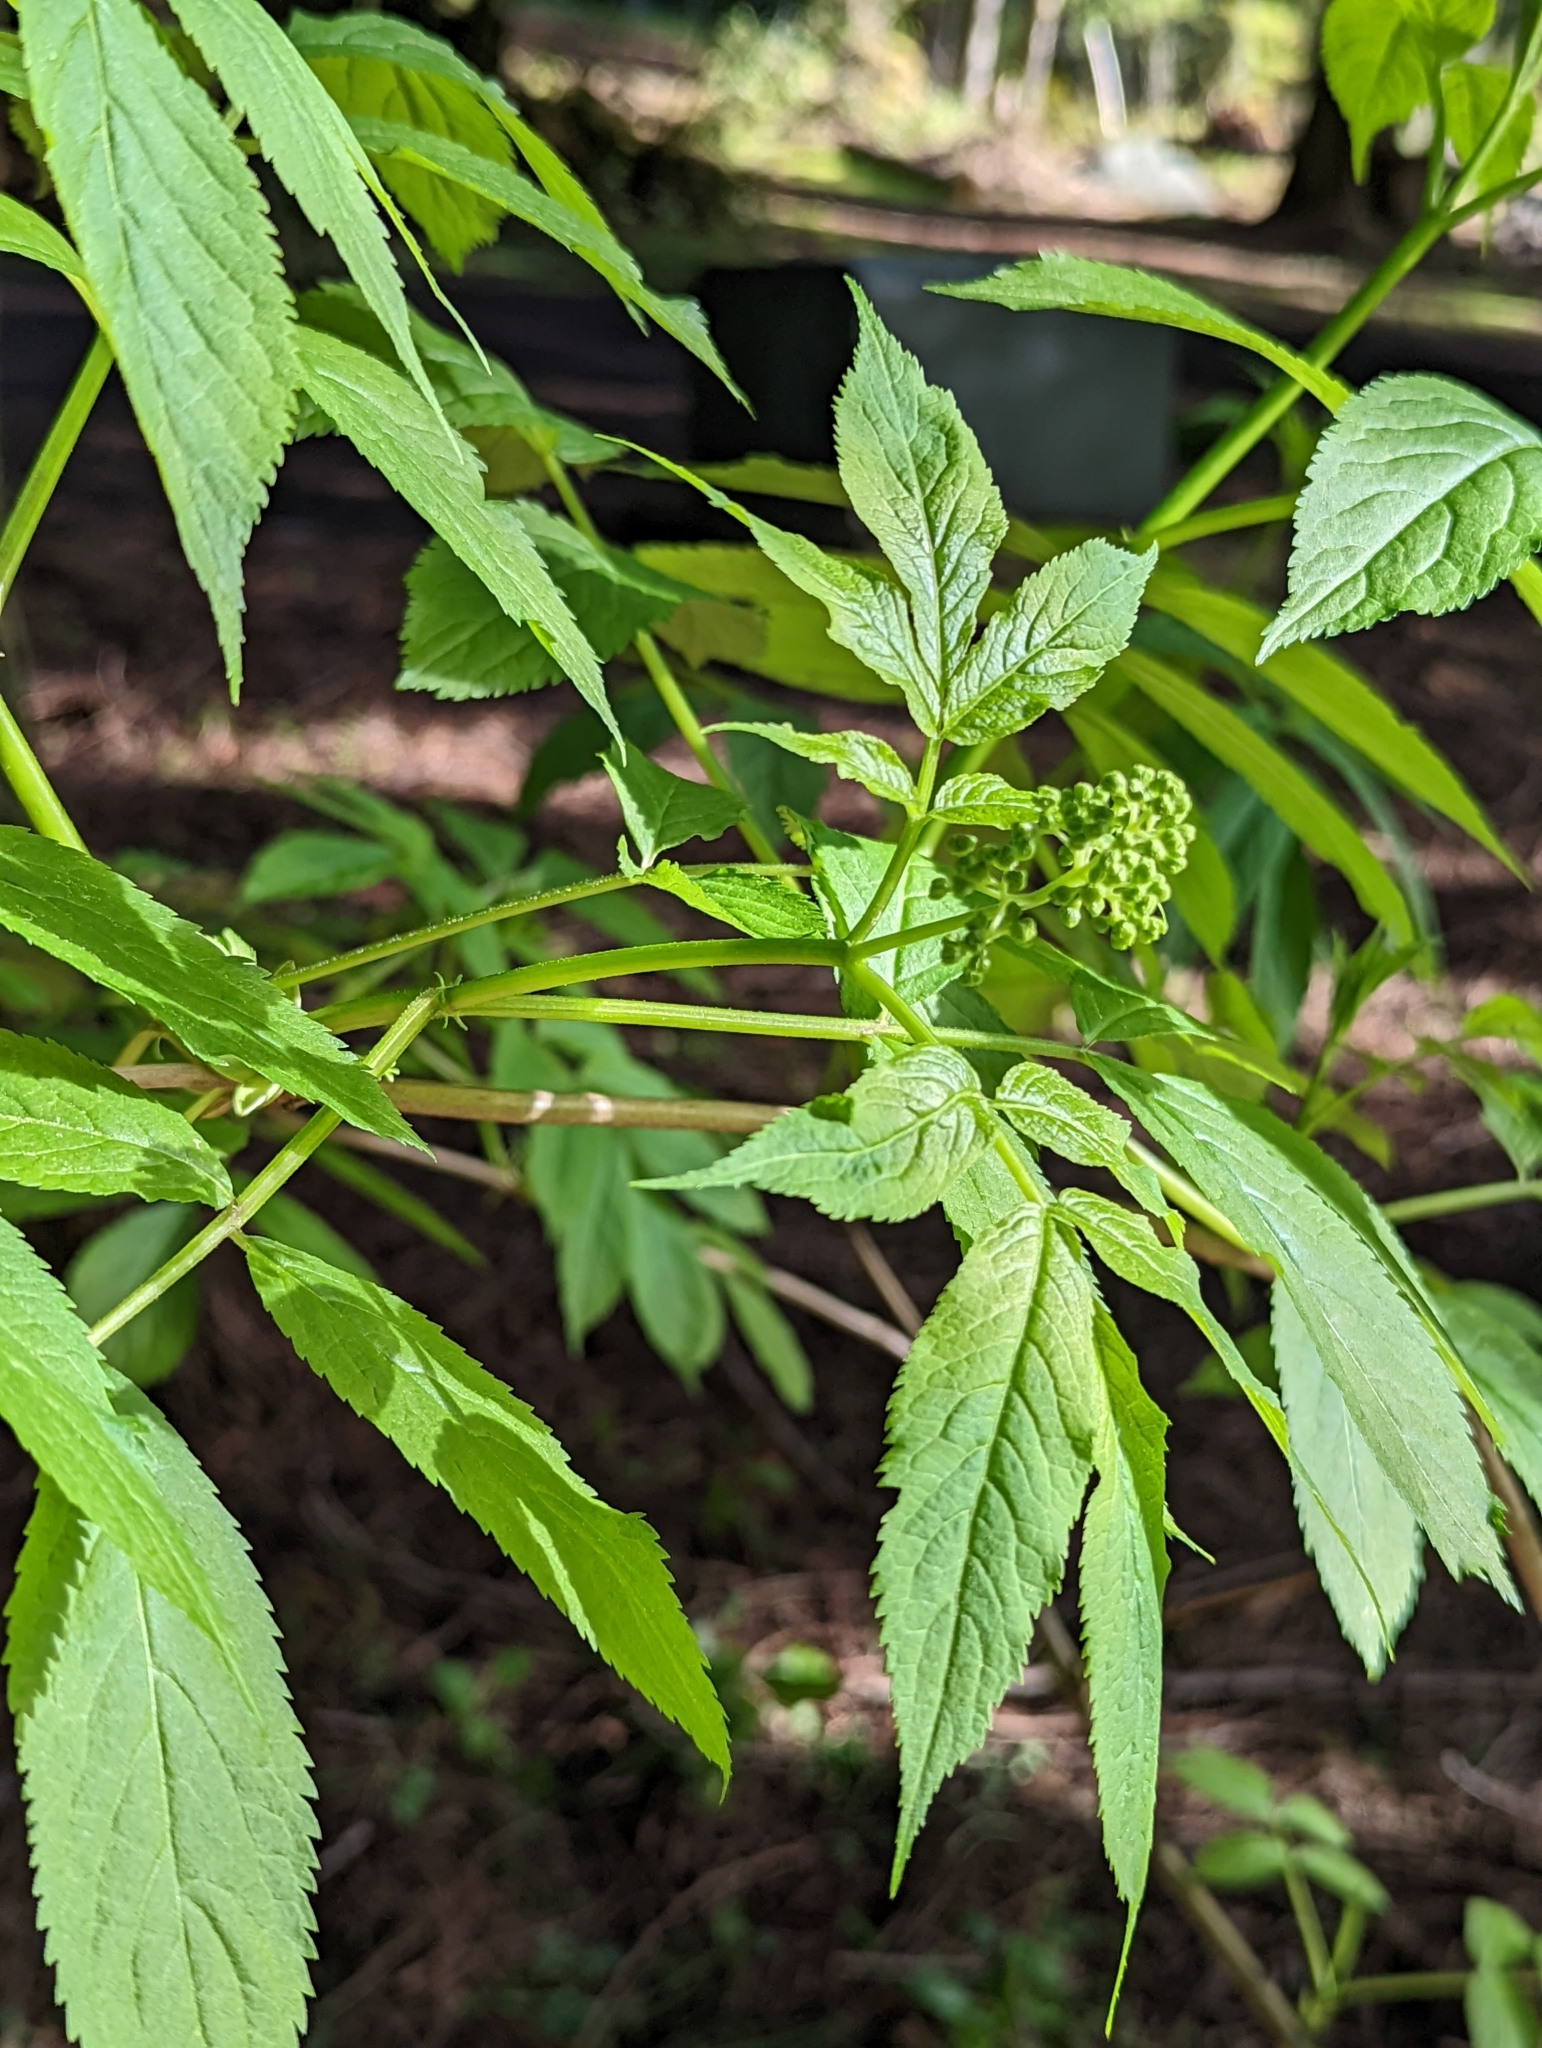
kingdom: Plantae
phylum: Tracheophyta
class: Magnoliopsida
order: Dipsacales
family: Viburnaceae
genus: Sambucus
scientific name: Sambucus racemosa
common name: Red-berried elder
